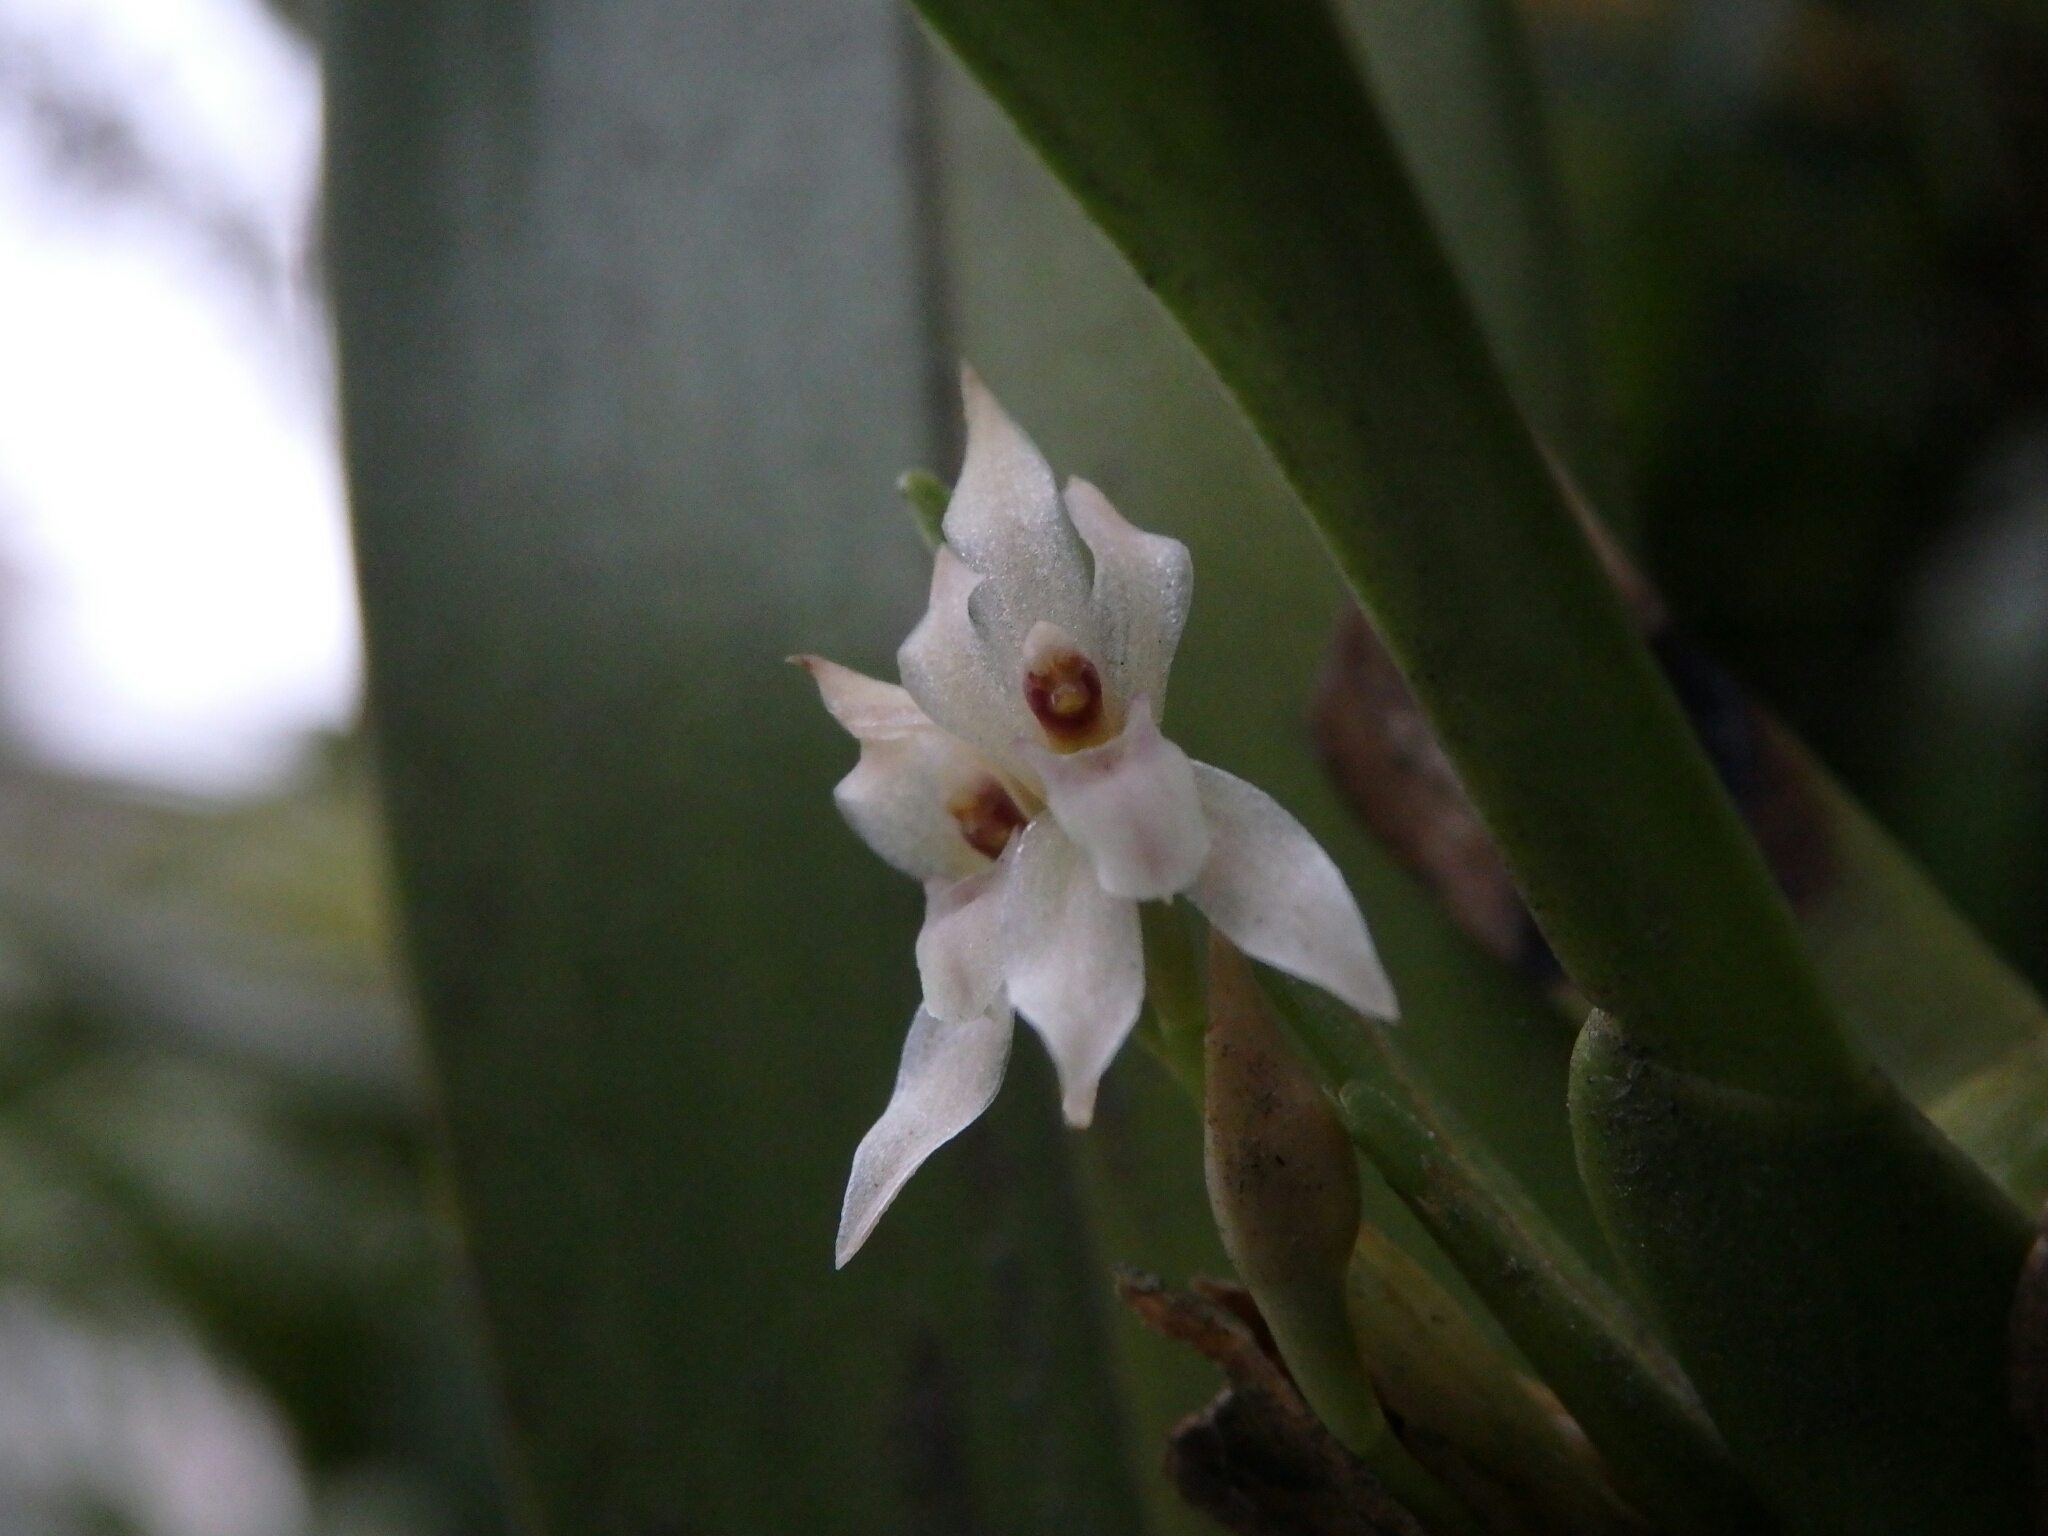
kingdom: Plantae
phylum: Tracheophyta
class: Liliopsida
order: Asparagales
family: Orchidaceae
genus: Maxillaria
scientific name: Maxillaria densa
